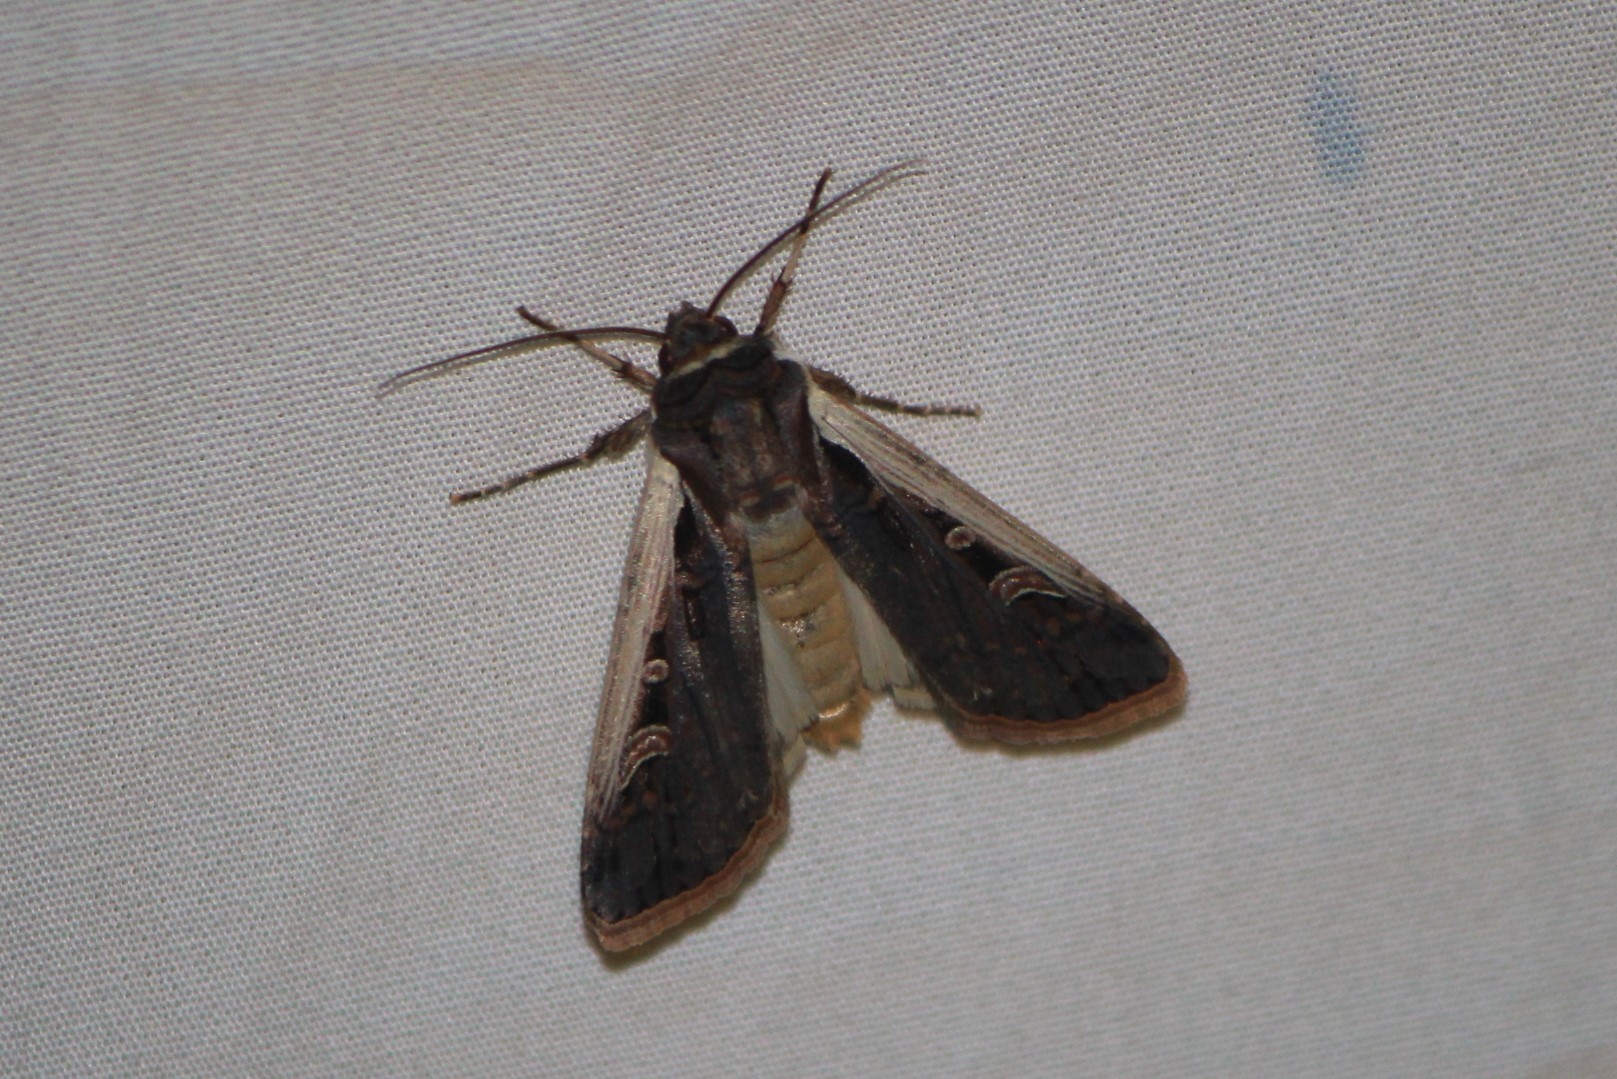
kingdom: Animalia
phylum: Arthropoda
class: Insecta
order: Lepidoptera
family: Noctuidae
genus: Striacosta
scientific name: Striacosta albicosta
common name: Western bean cutworm moth
